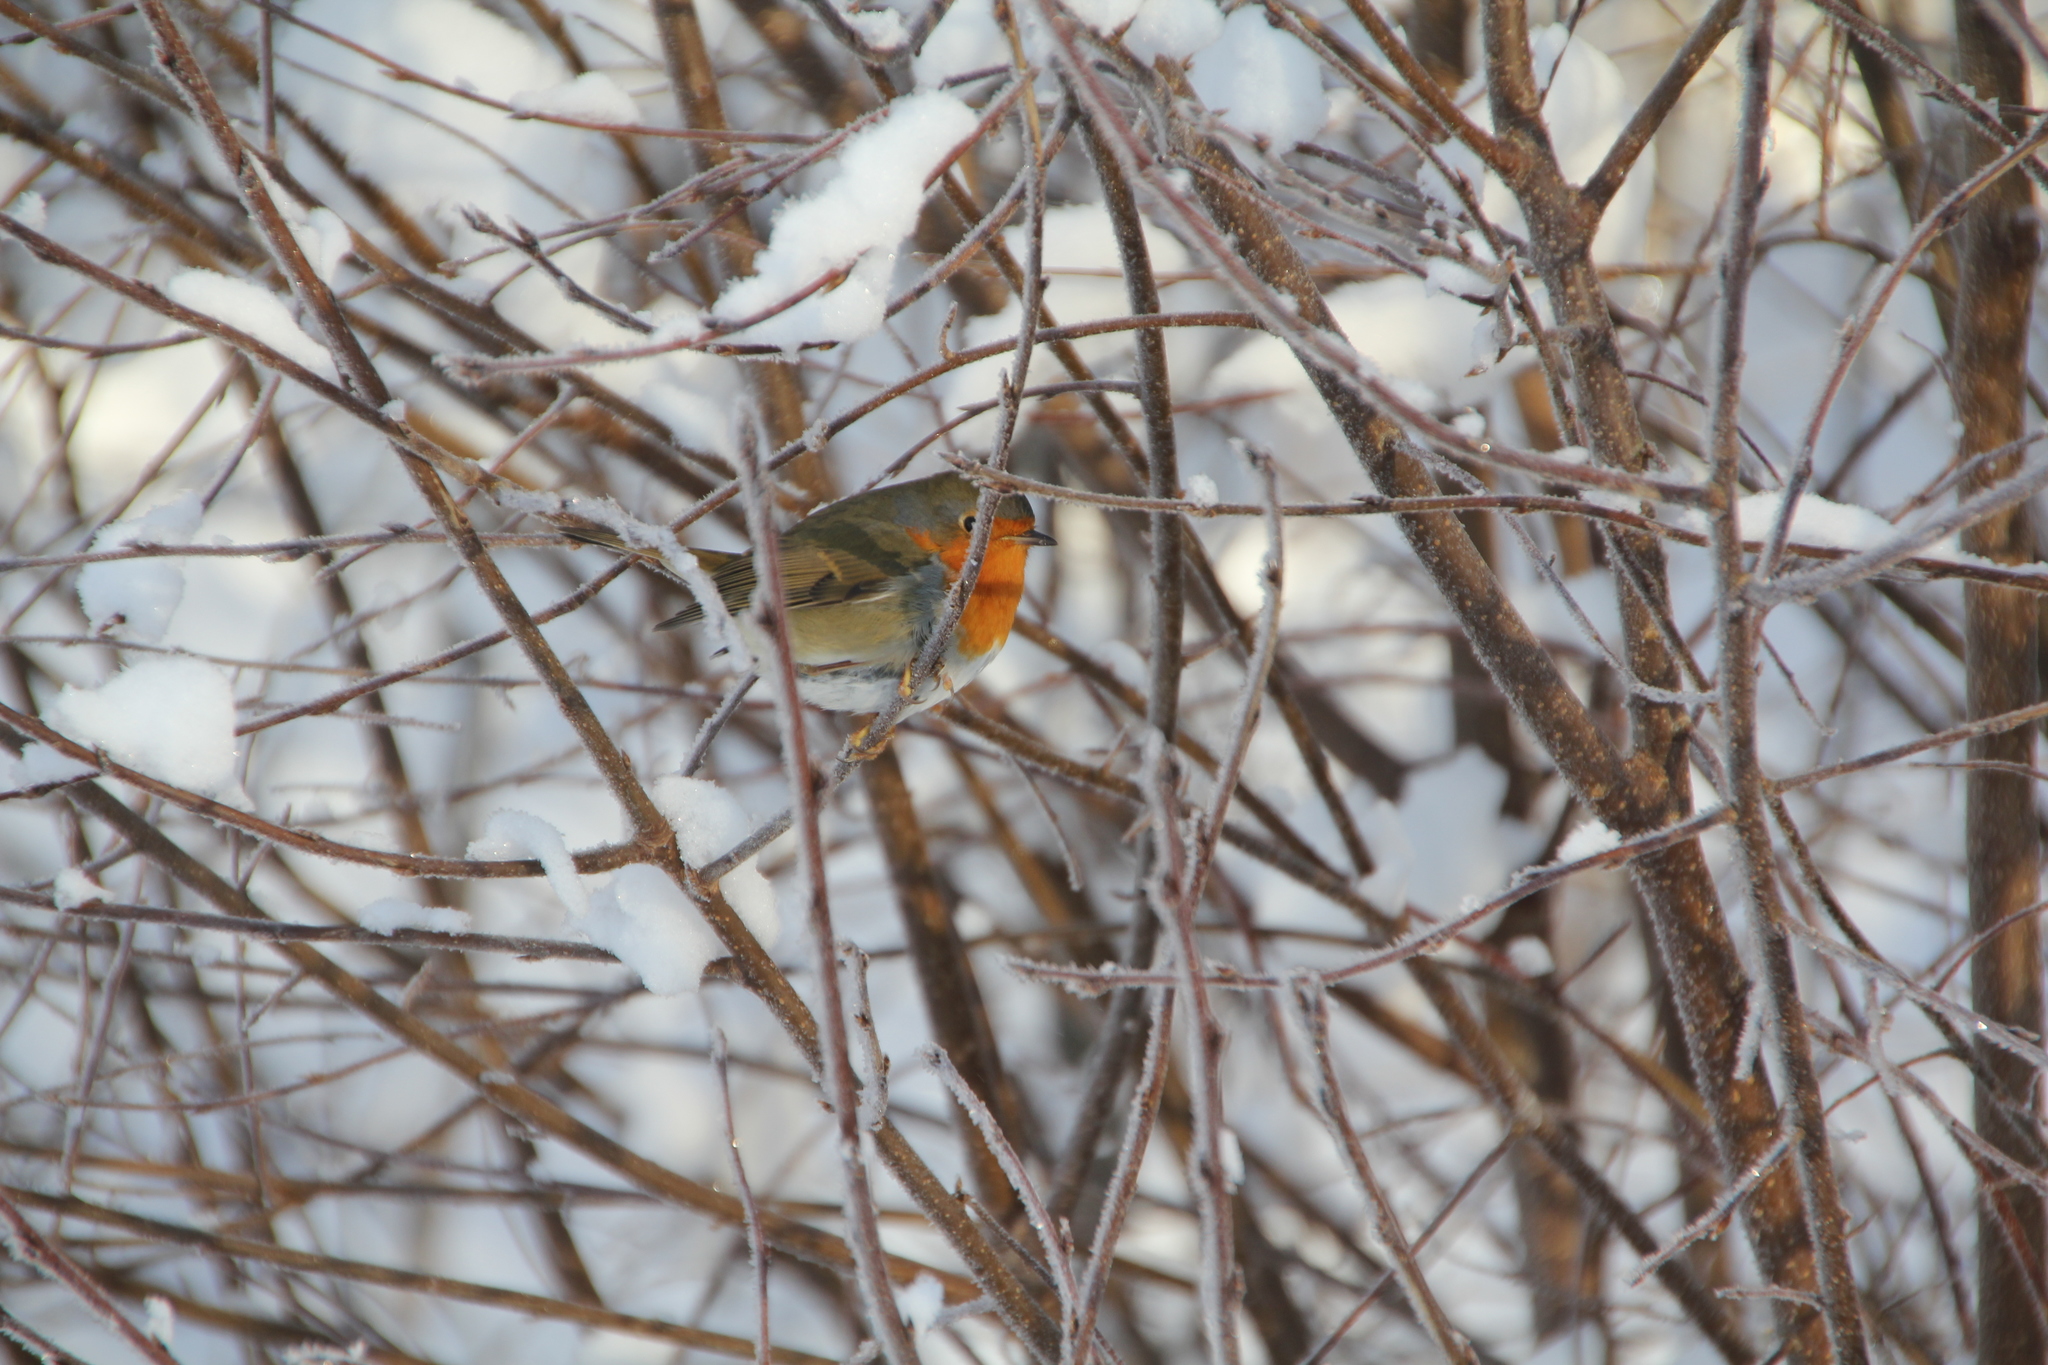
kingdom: Animalia
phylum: Chordata
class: Aves
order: Passeriformes
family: Muscicapidae
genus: Erithacus
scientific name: Erithacus rubecula
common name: European robin
